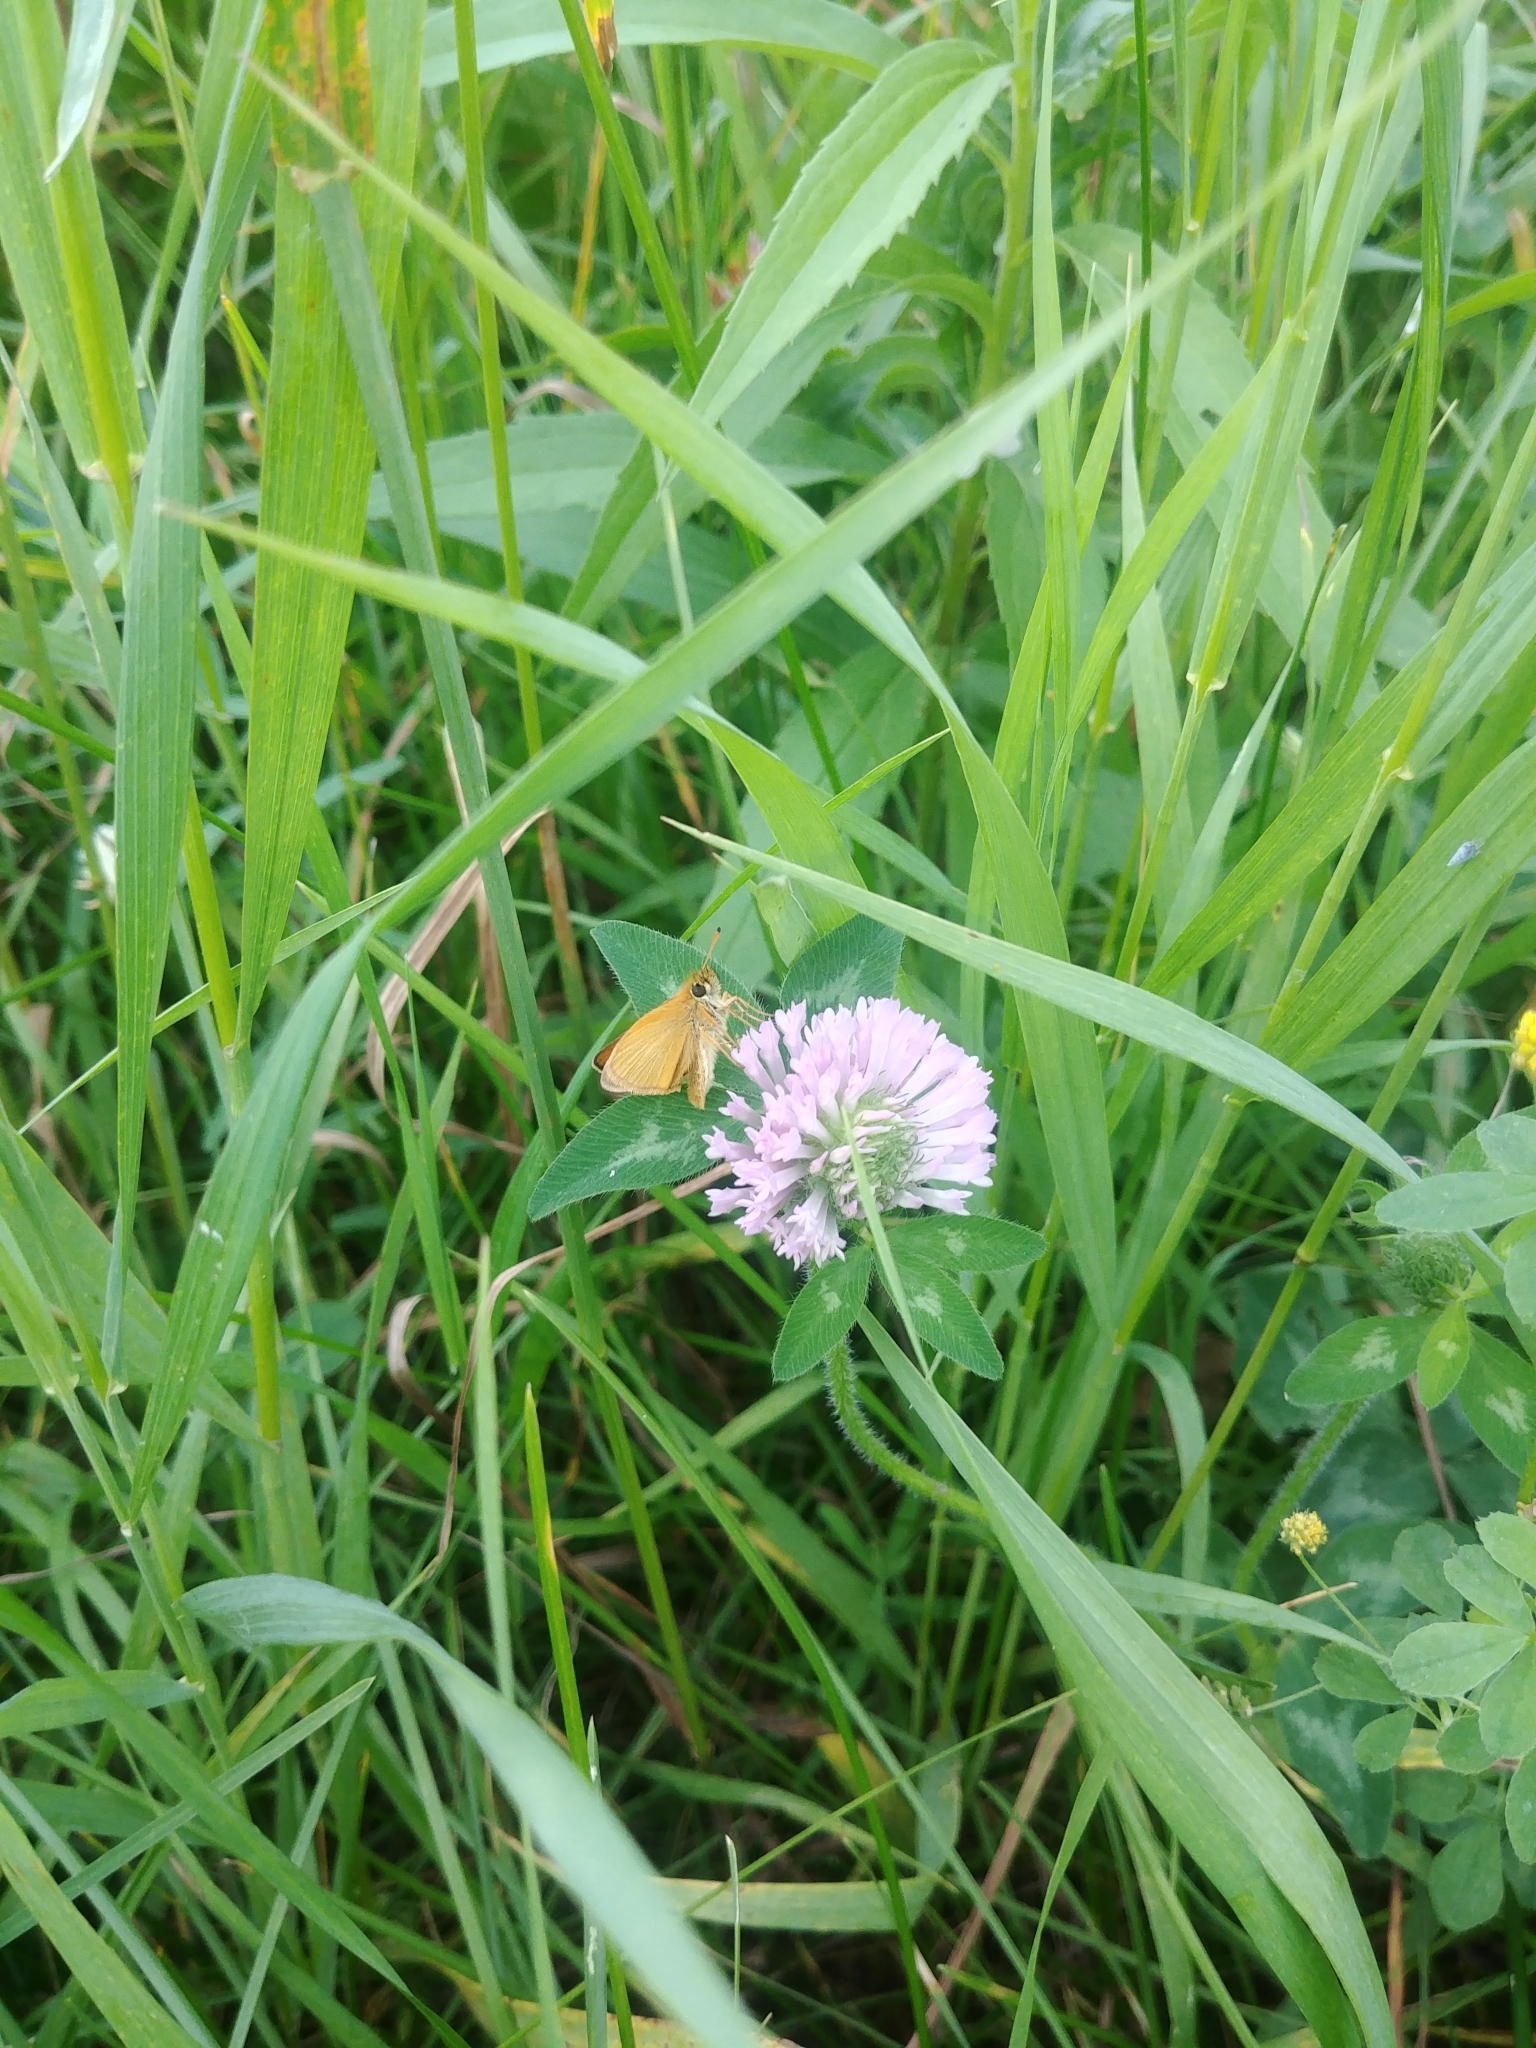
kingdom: Animalia
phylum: Arthropoda
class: Insecta
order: Lepidoptera
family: Hesperiidae
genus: Thymelicus
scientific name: Thymelicus lineola
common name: Essex skipper
